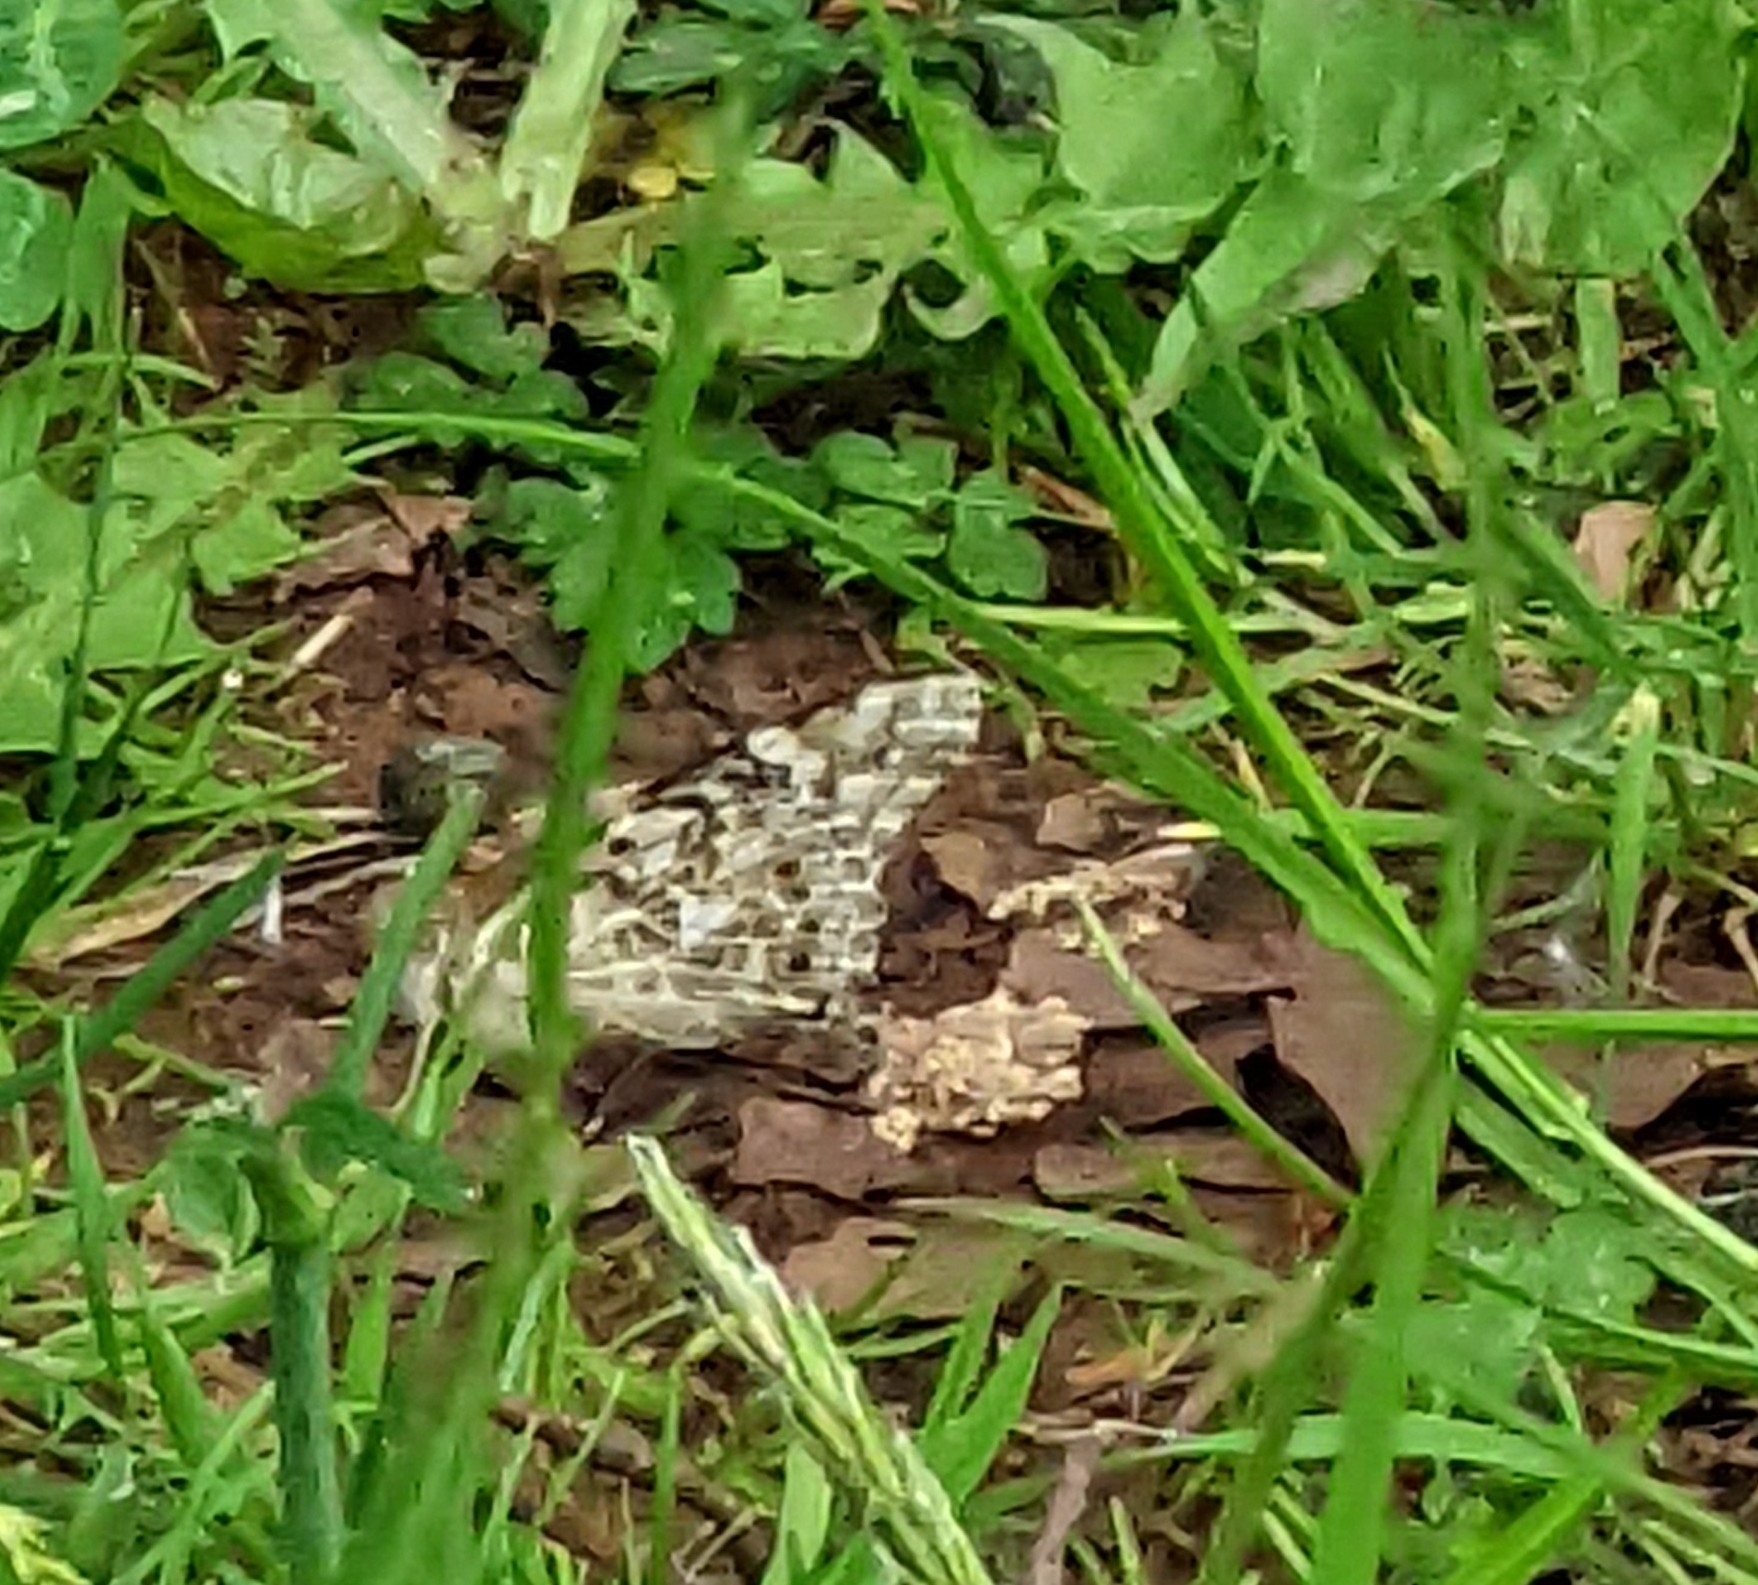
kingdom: Animalia
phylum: Arthropoda
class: Insecta
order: Lepidoptera
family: Nymphalidae
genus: Vanessa
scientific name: Vanessa cardui
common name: Painted lady
